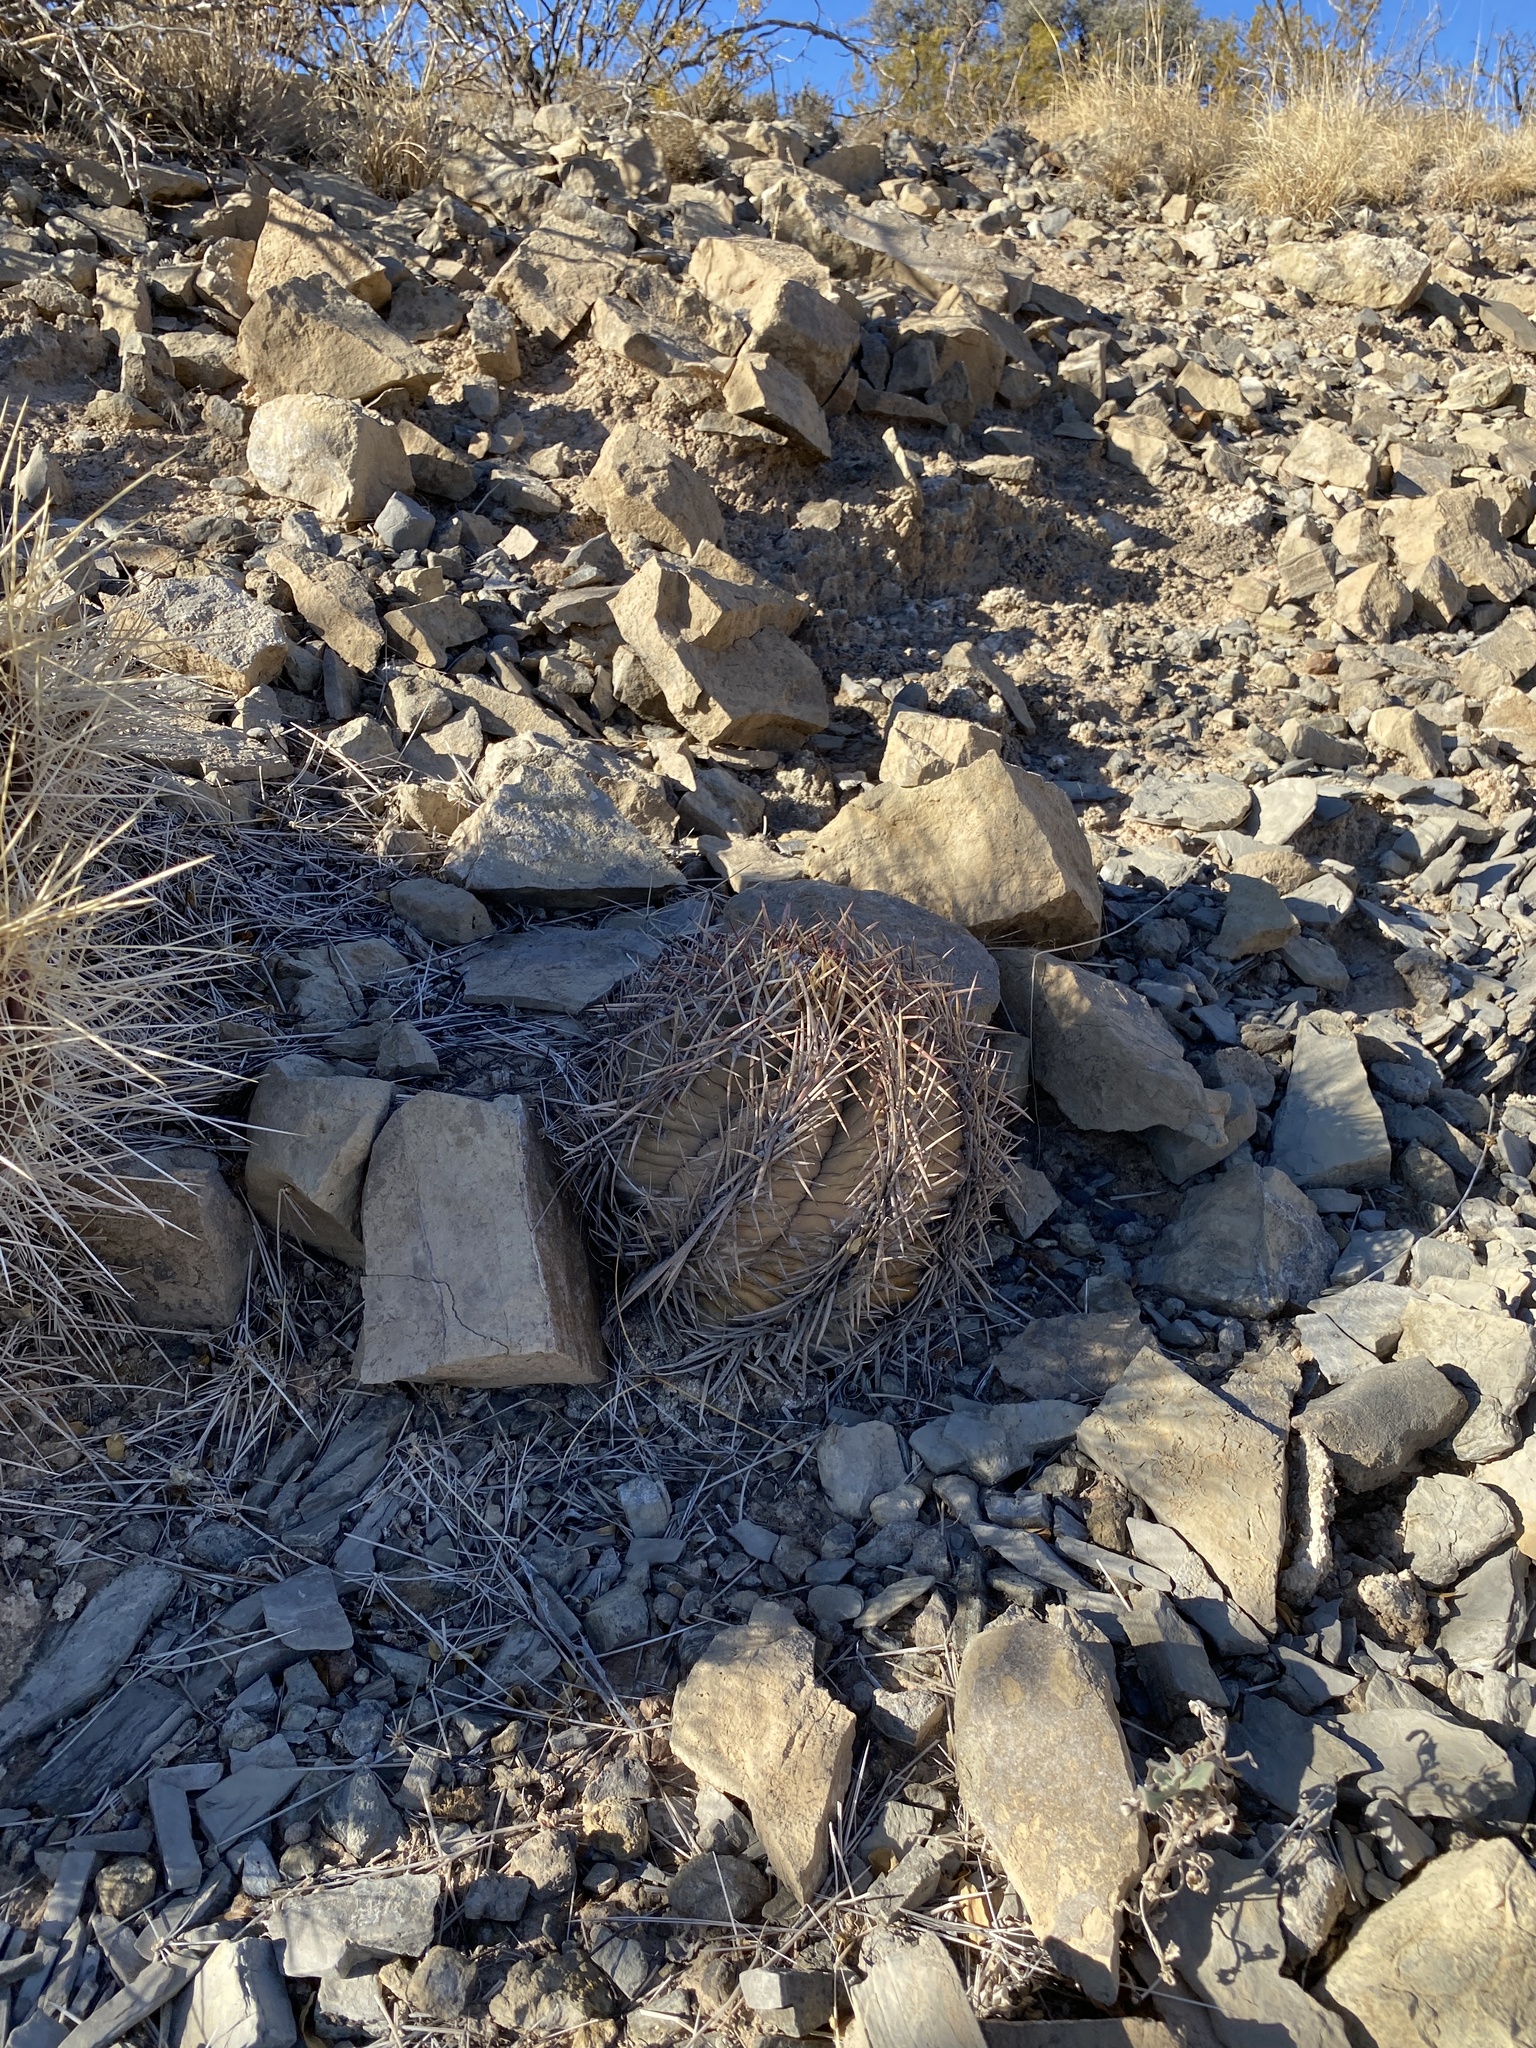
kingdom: Plantae
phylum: Tracheophyta
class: Magnoliopsida
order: Caryophyllales
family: Cactaceae
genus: Echinocactus
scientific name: Echinocactus horizonthalonius
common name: Devilshead
